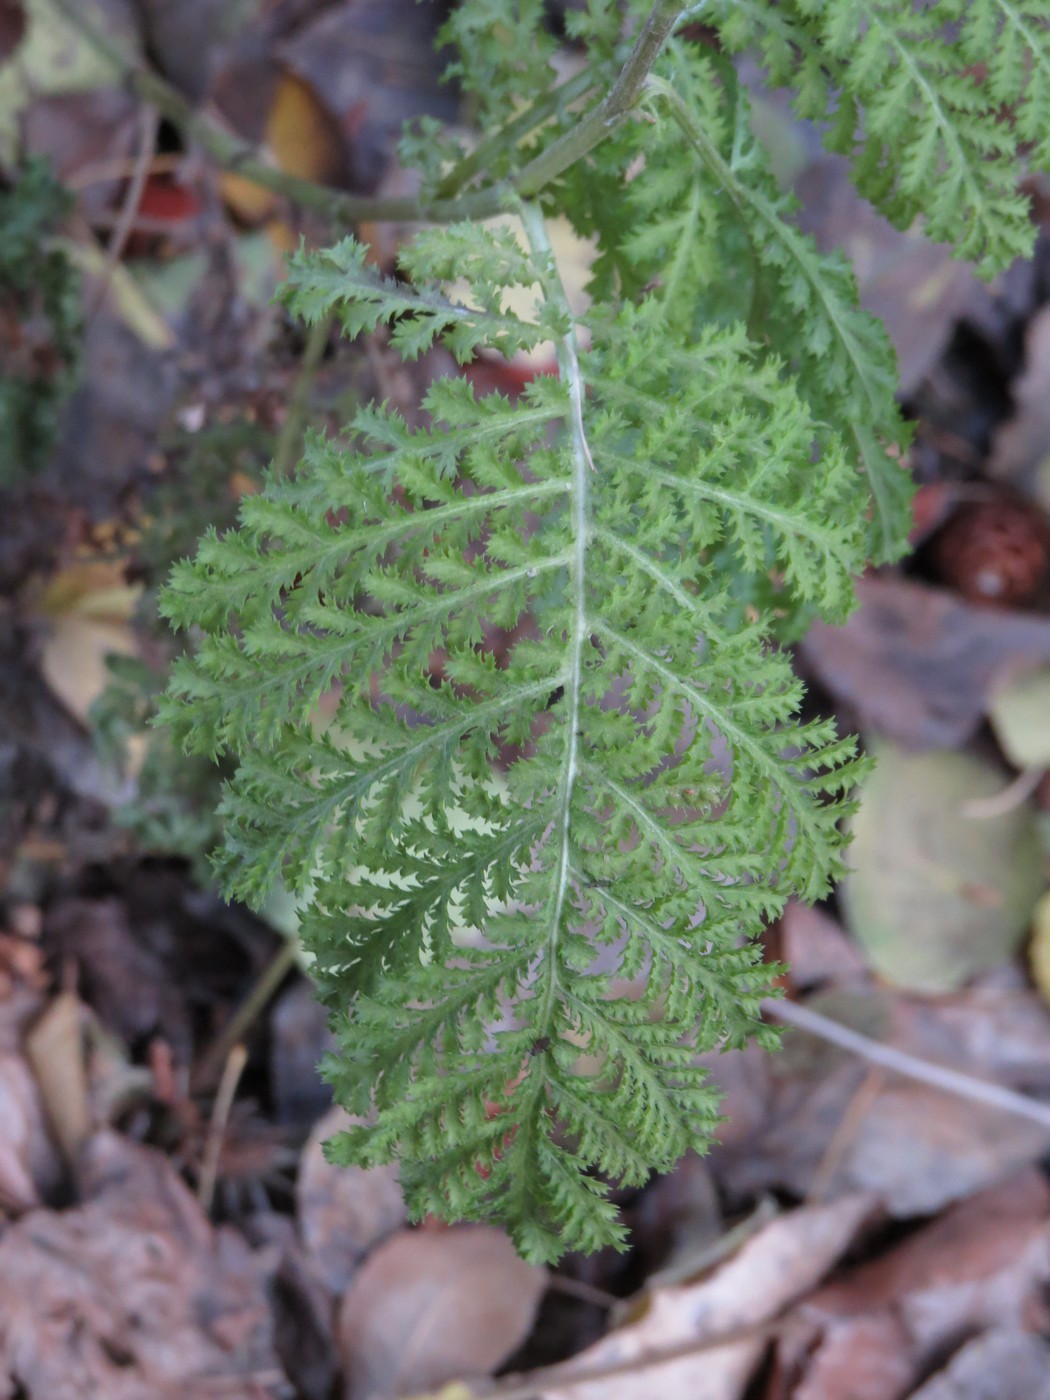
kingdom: Plantae
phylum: Tracheophyta
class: Magnoliopsida
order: Asterales
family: Asteraceae
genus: Tanacetum
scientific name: Tanacetum vulgare
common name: Common tansy
